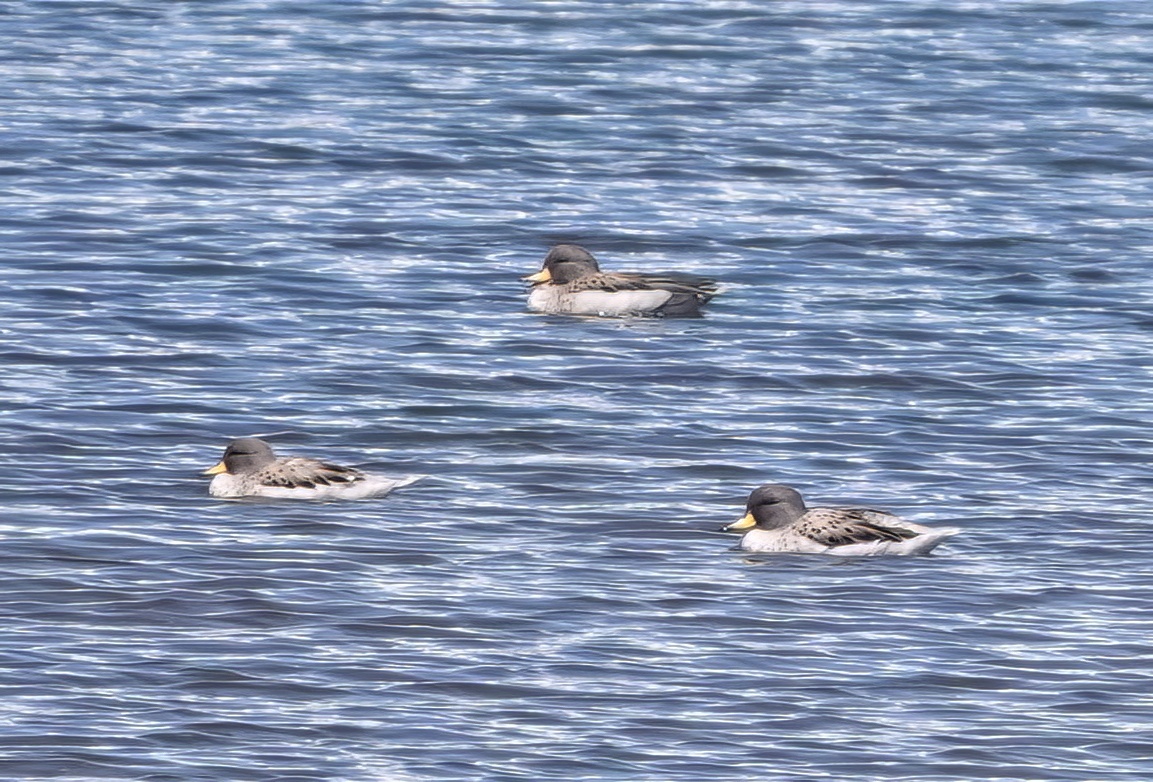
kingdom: Animalia
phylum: Chordata
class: Aves
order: Anseriformes
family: Anatidae
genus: Anas
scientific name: Anas flavirostris
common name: Yellow-billed teal
